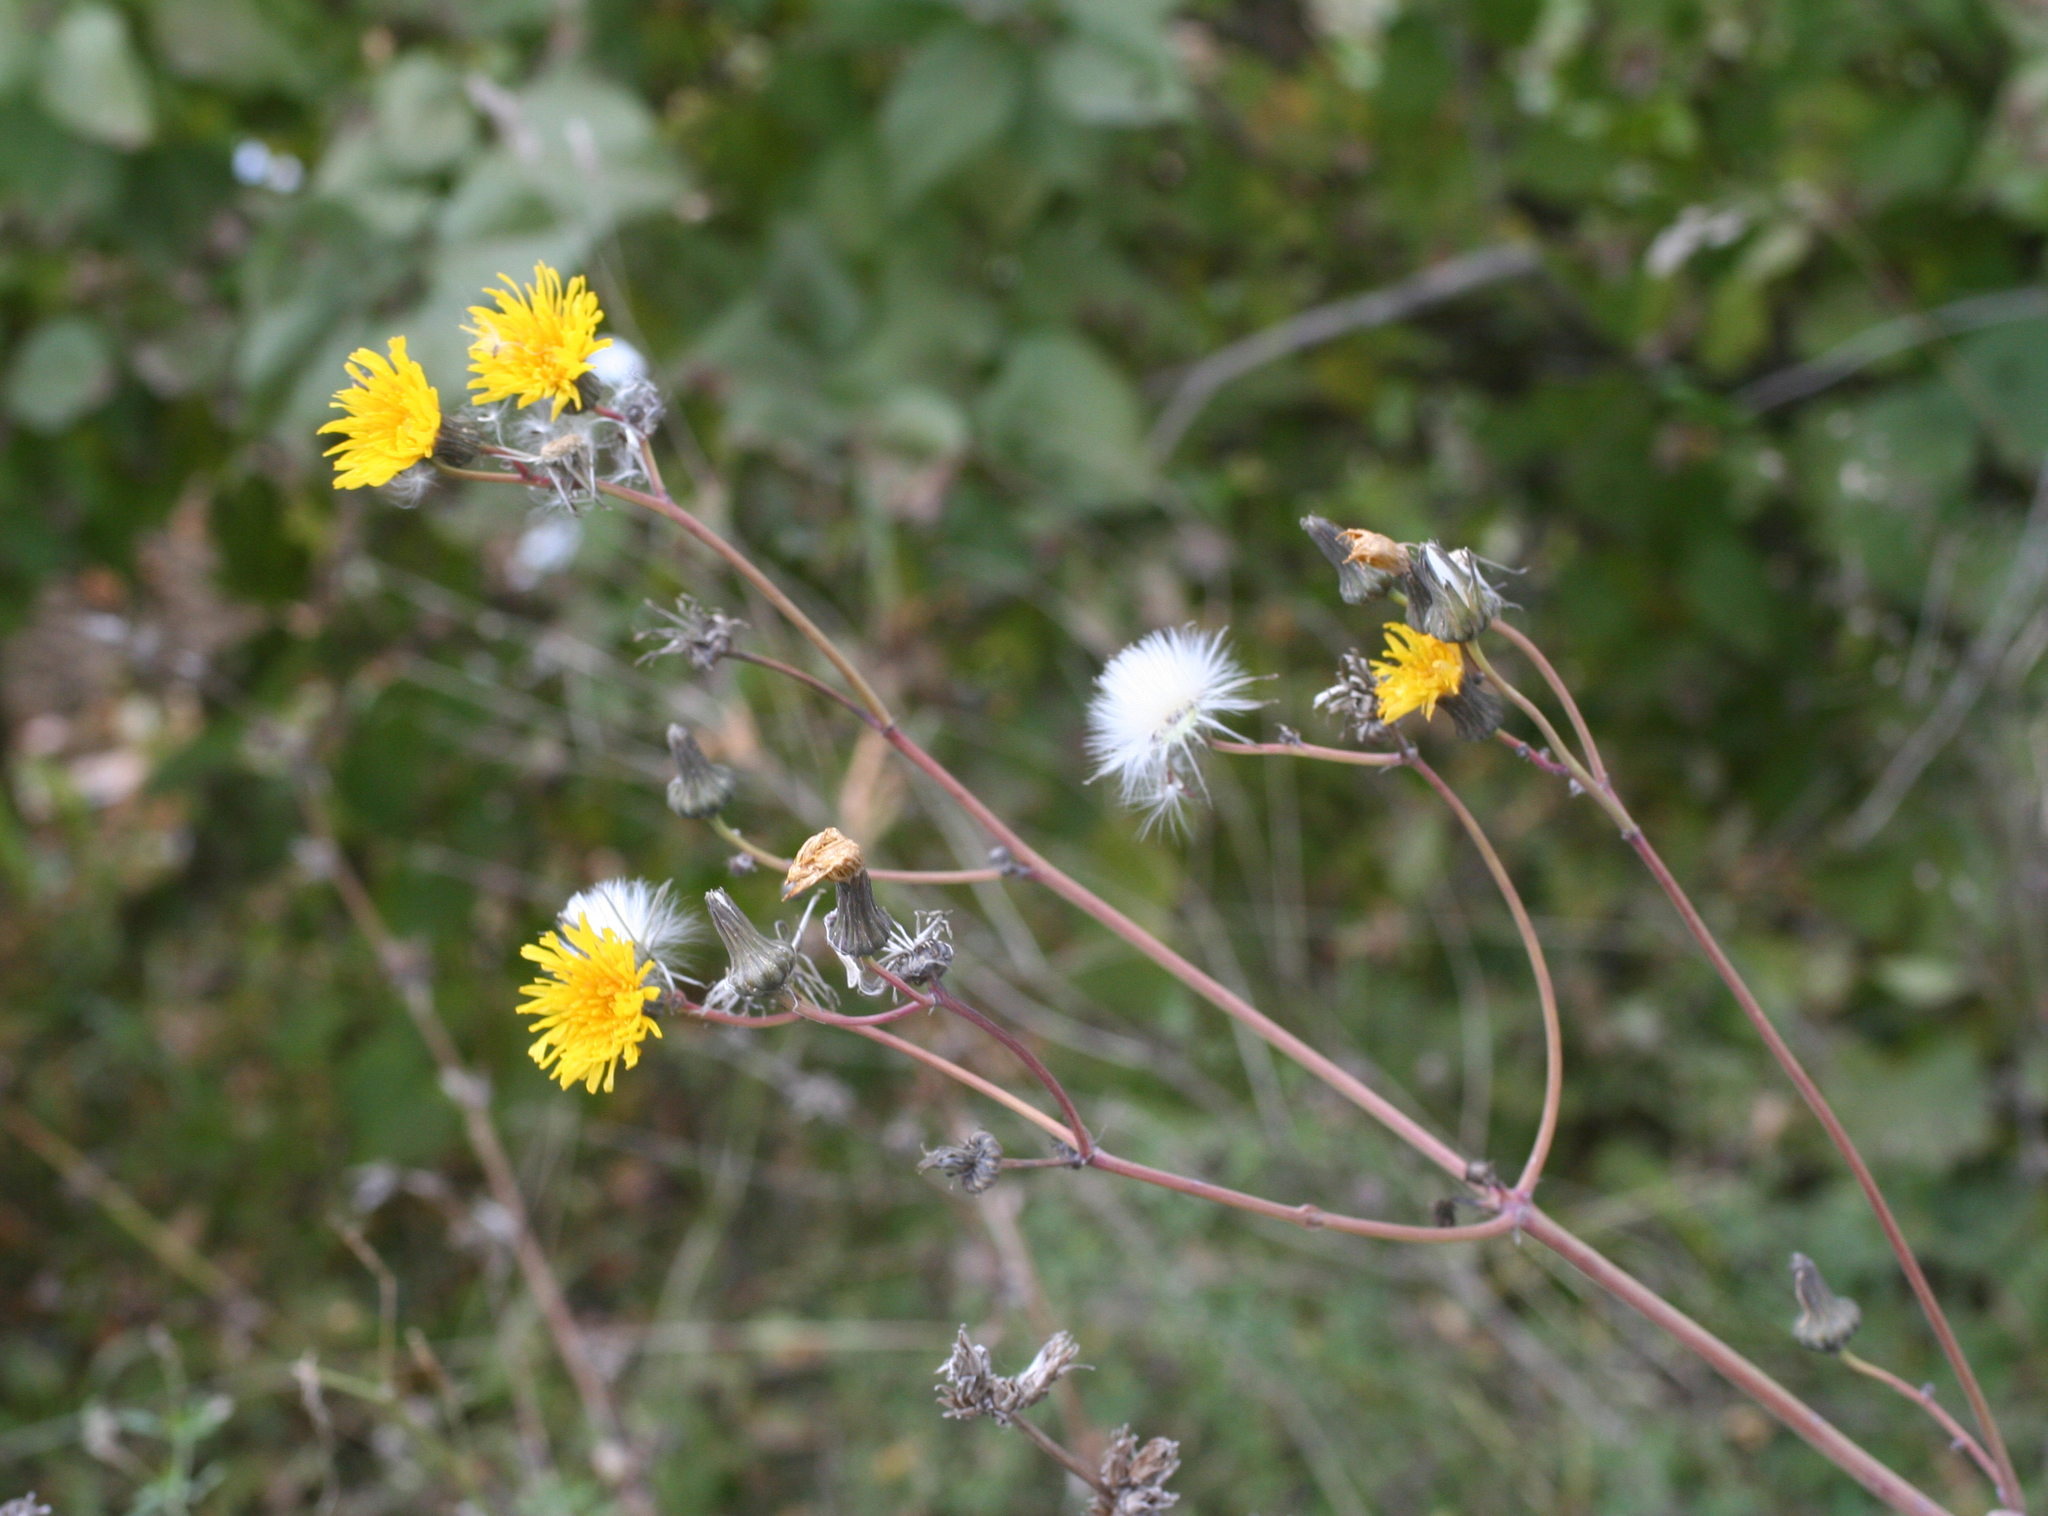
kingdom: Plantae
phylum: Tracheophyta
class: Magnoliopsida
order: Asterales
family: Asteraceae
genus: Sonchus
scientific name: Sonchus arvensis
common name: Perennial sow-thistle
